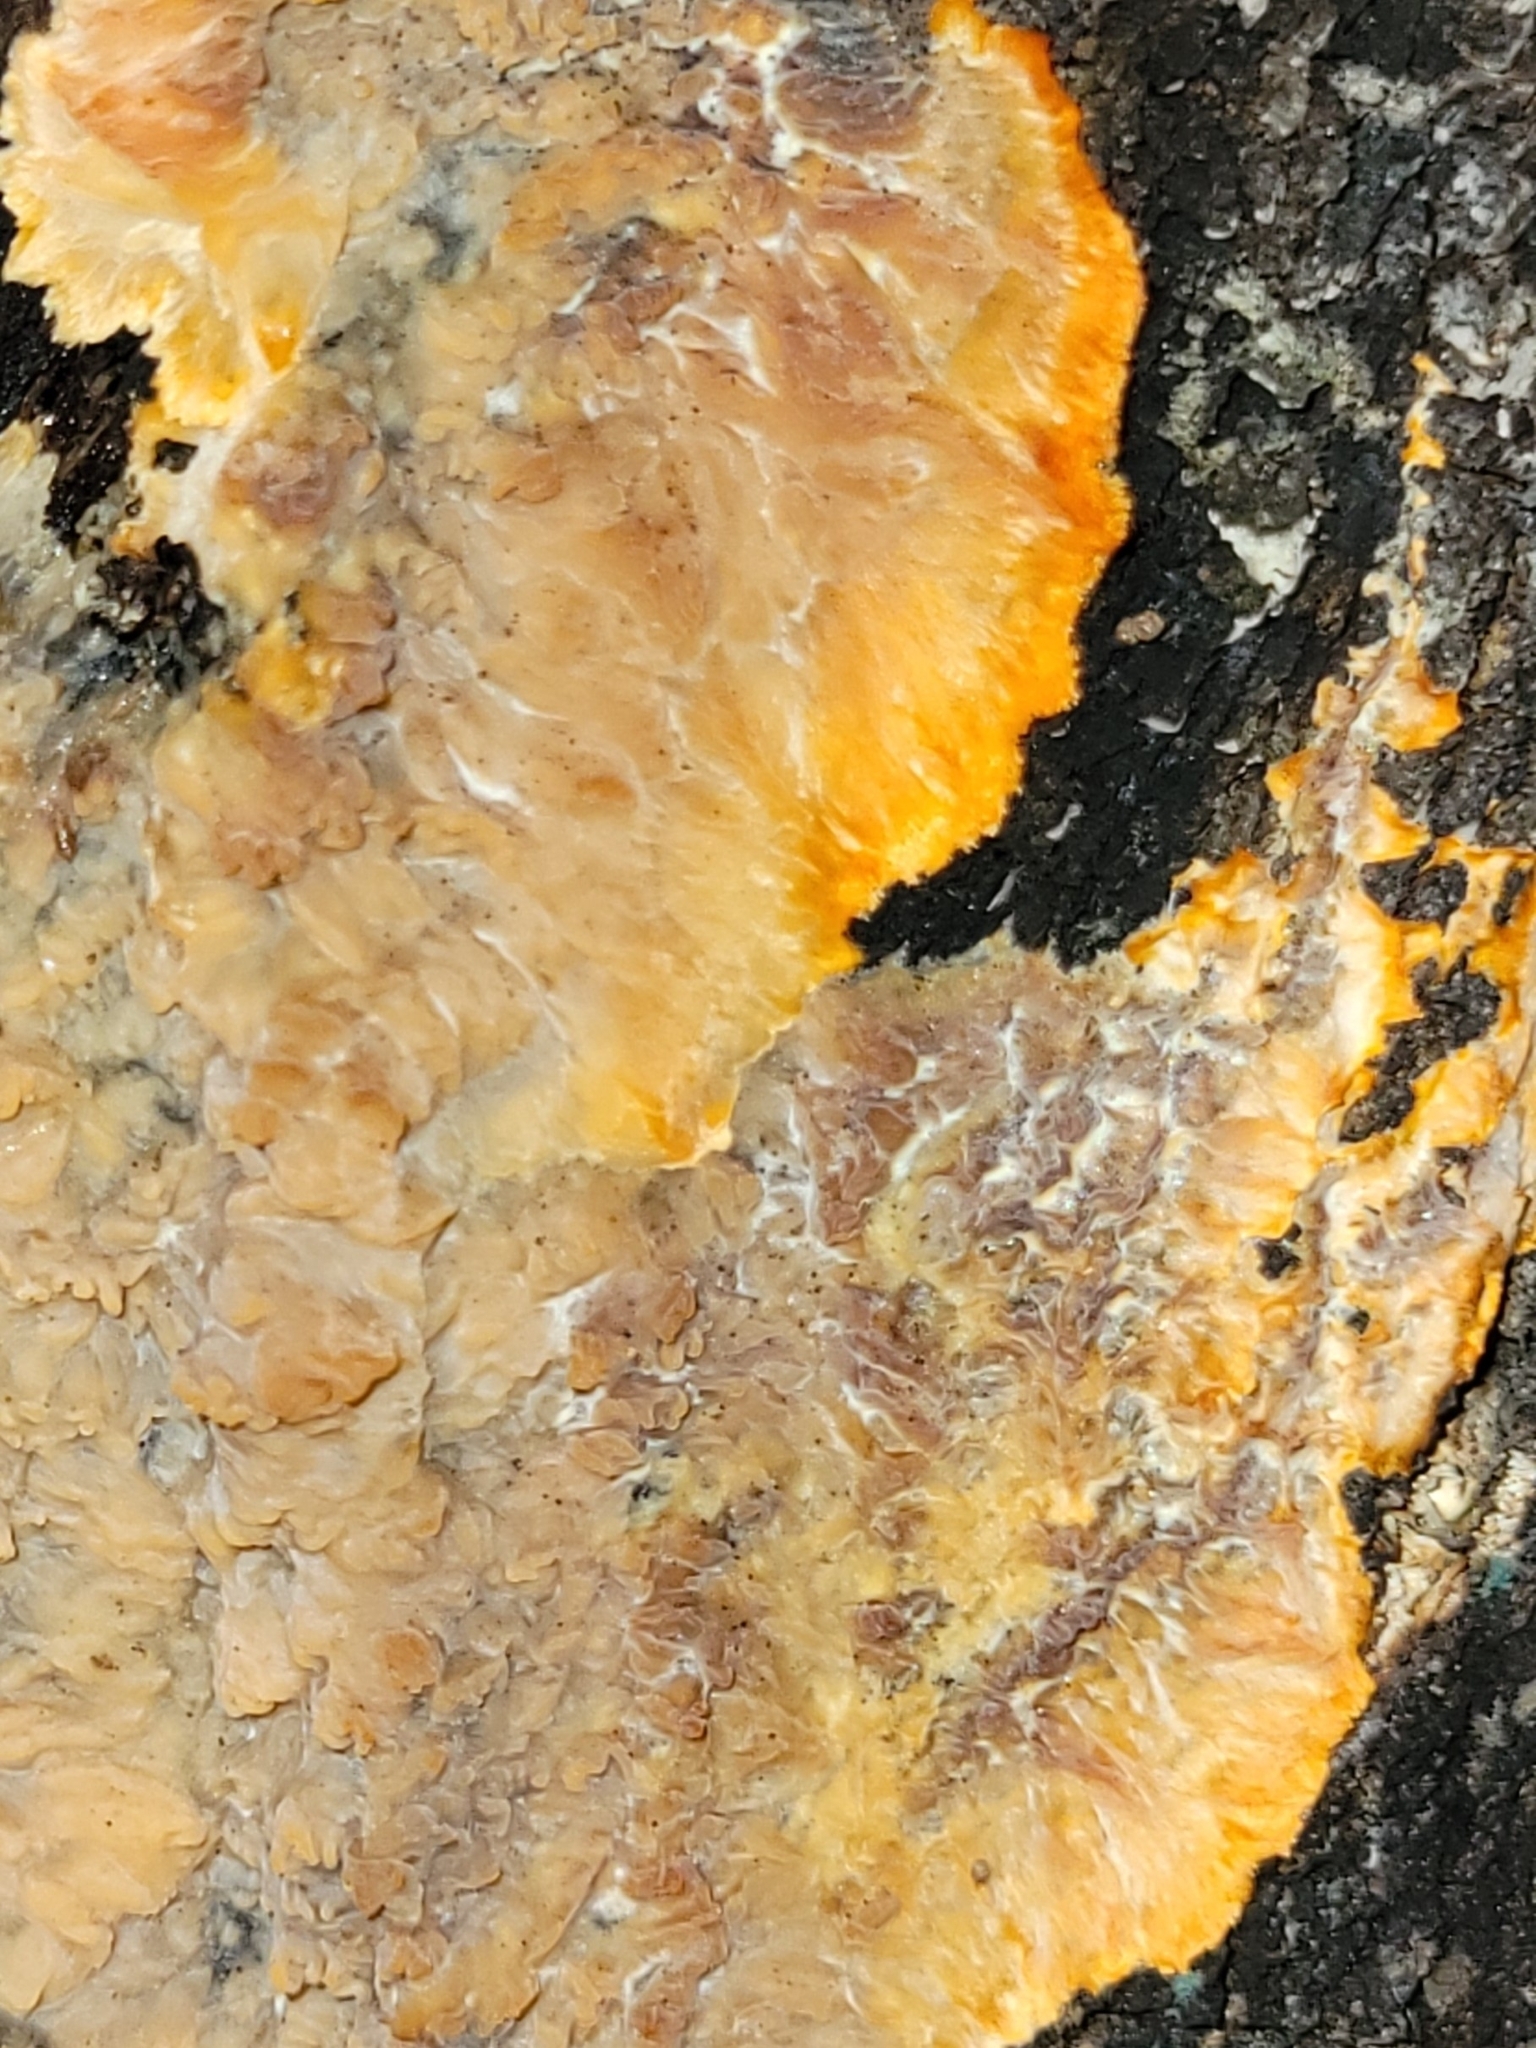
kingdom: Fungi
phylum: Basidiomycota
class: Agaricomycetes
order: Polyporales
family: Meruliaceae
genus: Phlebia
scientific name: Phlebia radiata
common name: Wrinkled crust
